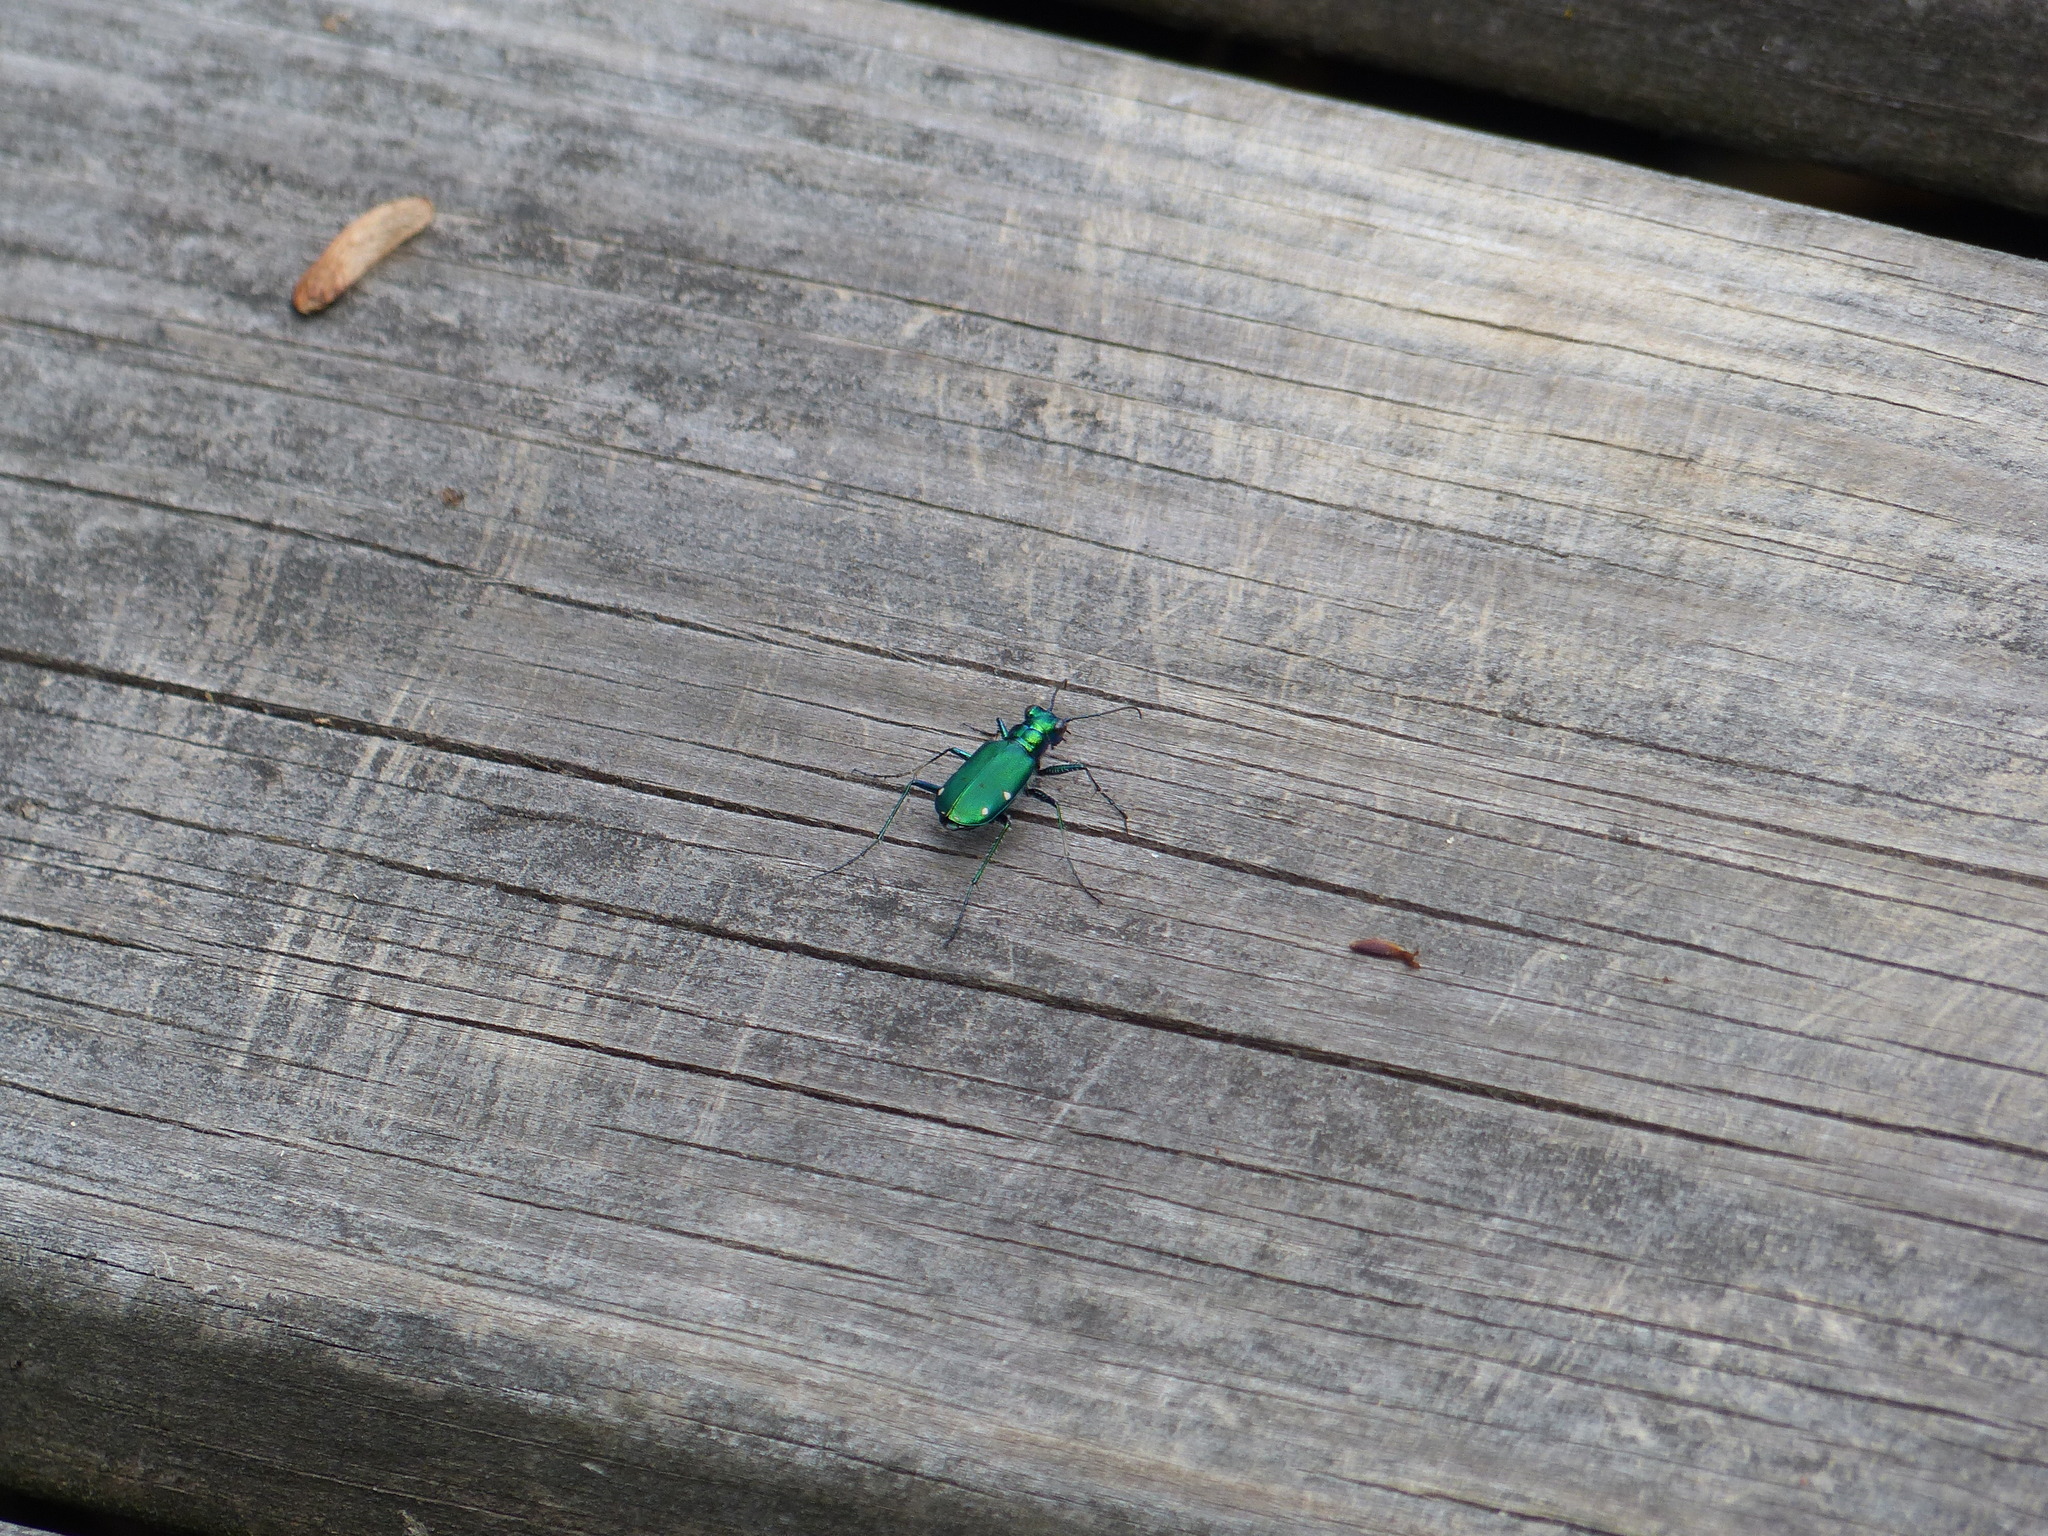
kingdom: Animalia
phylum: Arthropoda
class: Insecta
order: Coleoptera
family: Carabidae
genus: Cicindela
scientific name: Cicindela sexguttata
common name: Six-spotted tiger beetle
